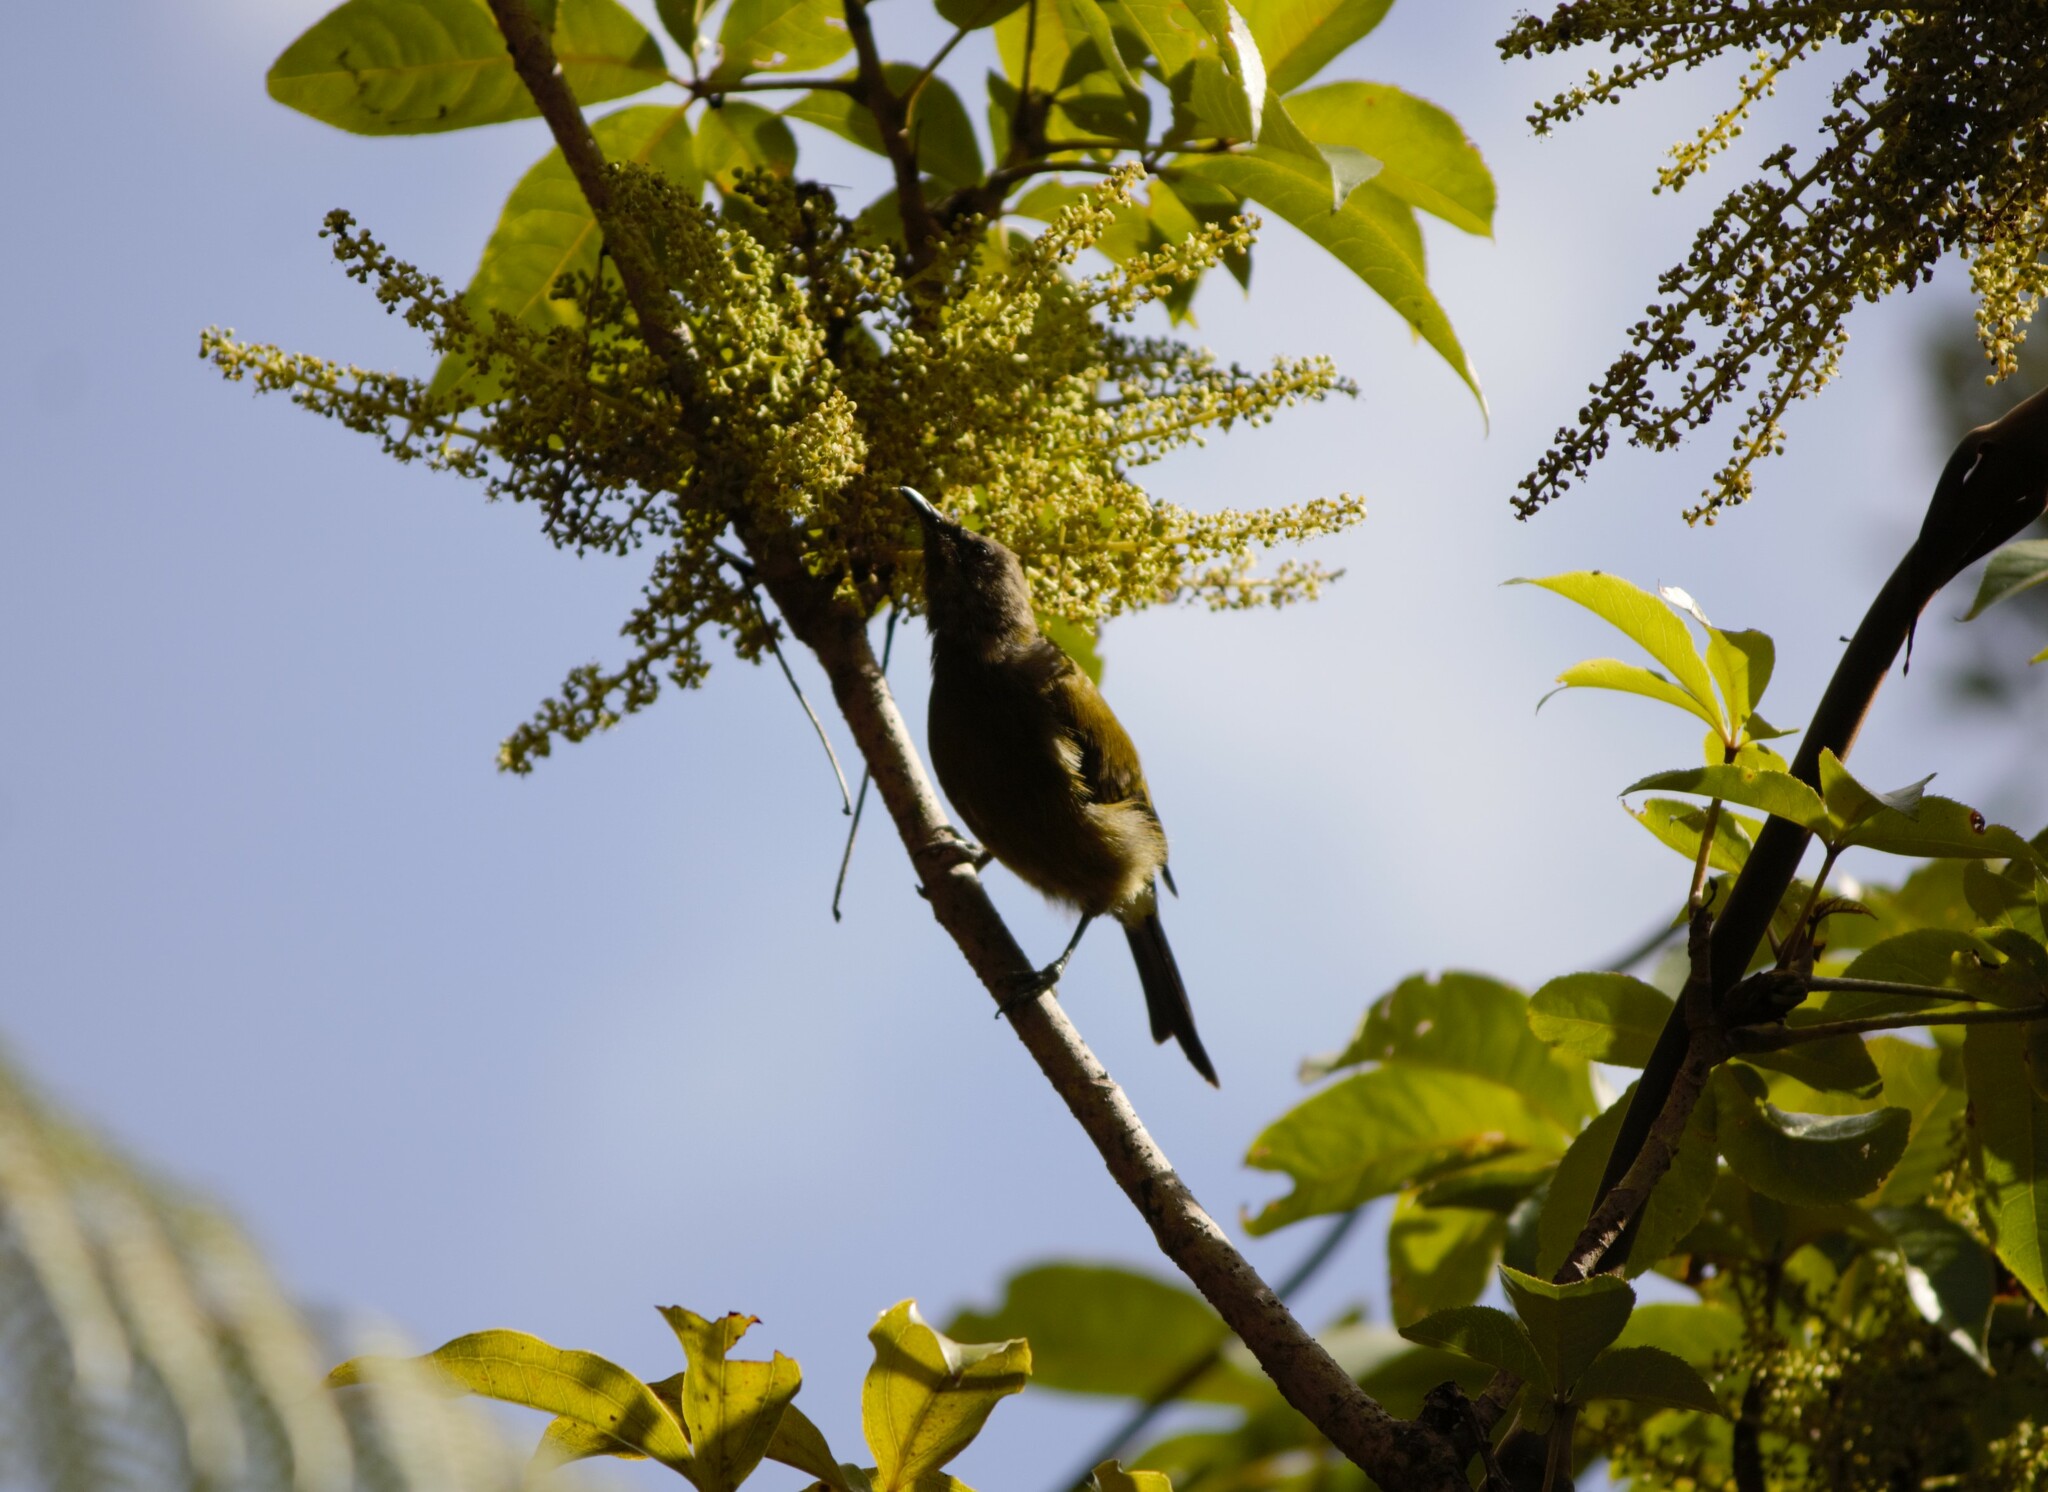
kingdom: Animalia
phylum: Chordata
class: Aves
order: Passeriformes
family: Meliphagidae
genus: Anthornis
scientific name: Anthornis melanura
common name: New zealand bellbird
